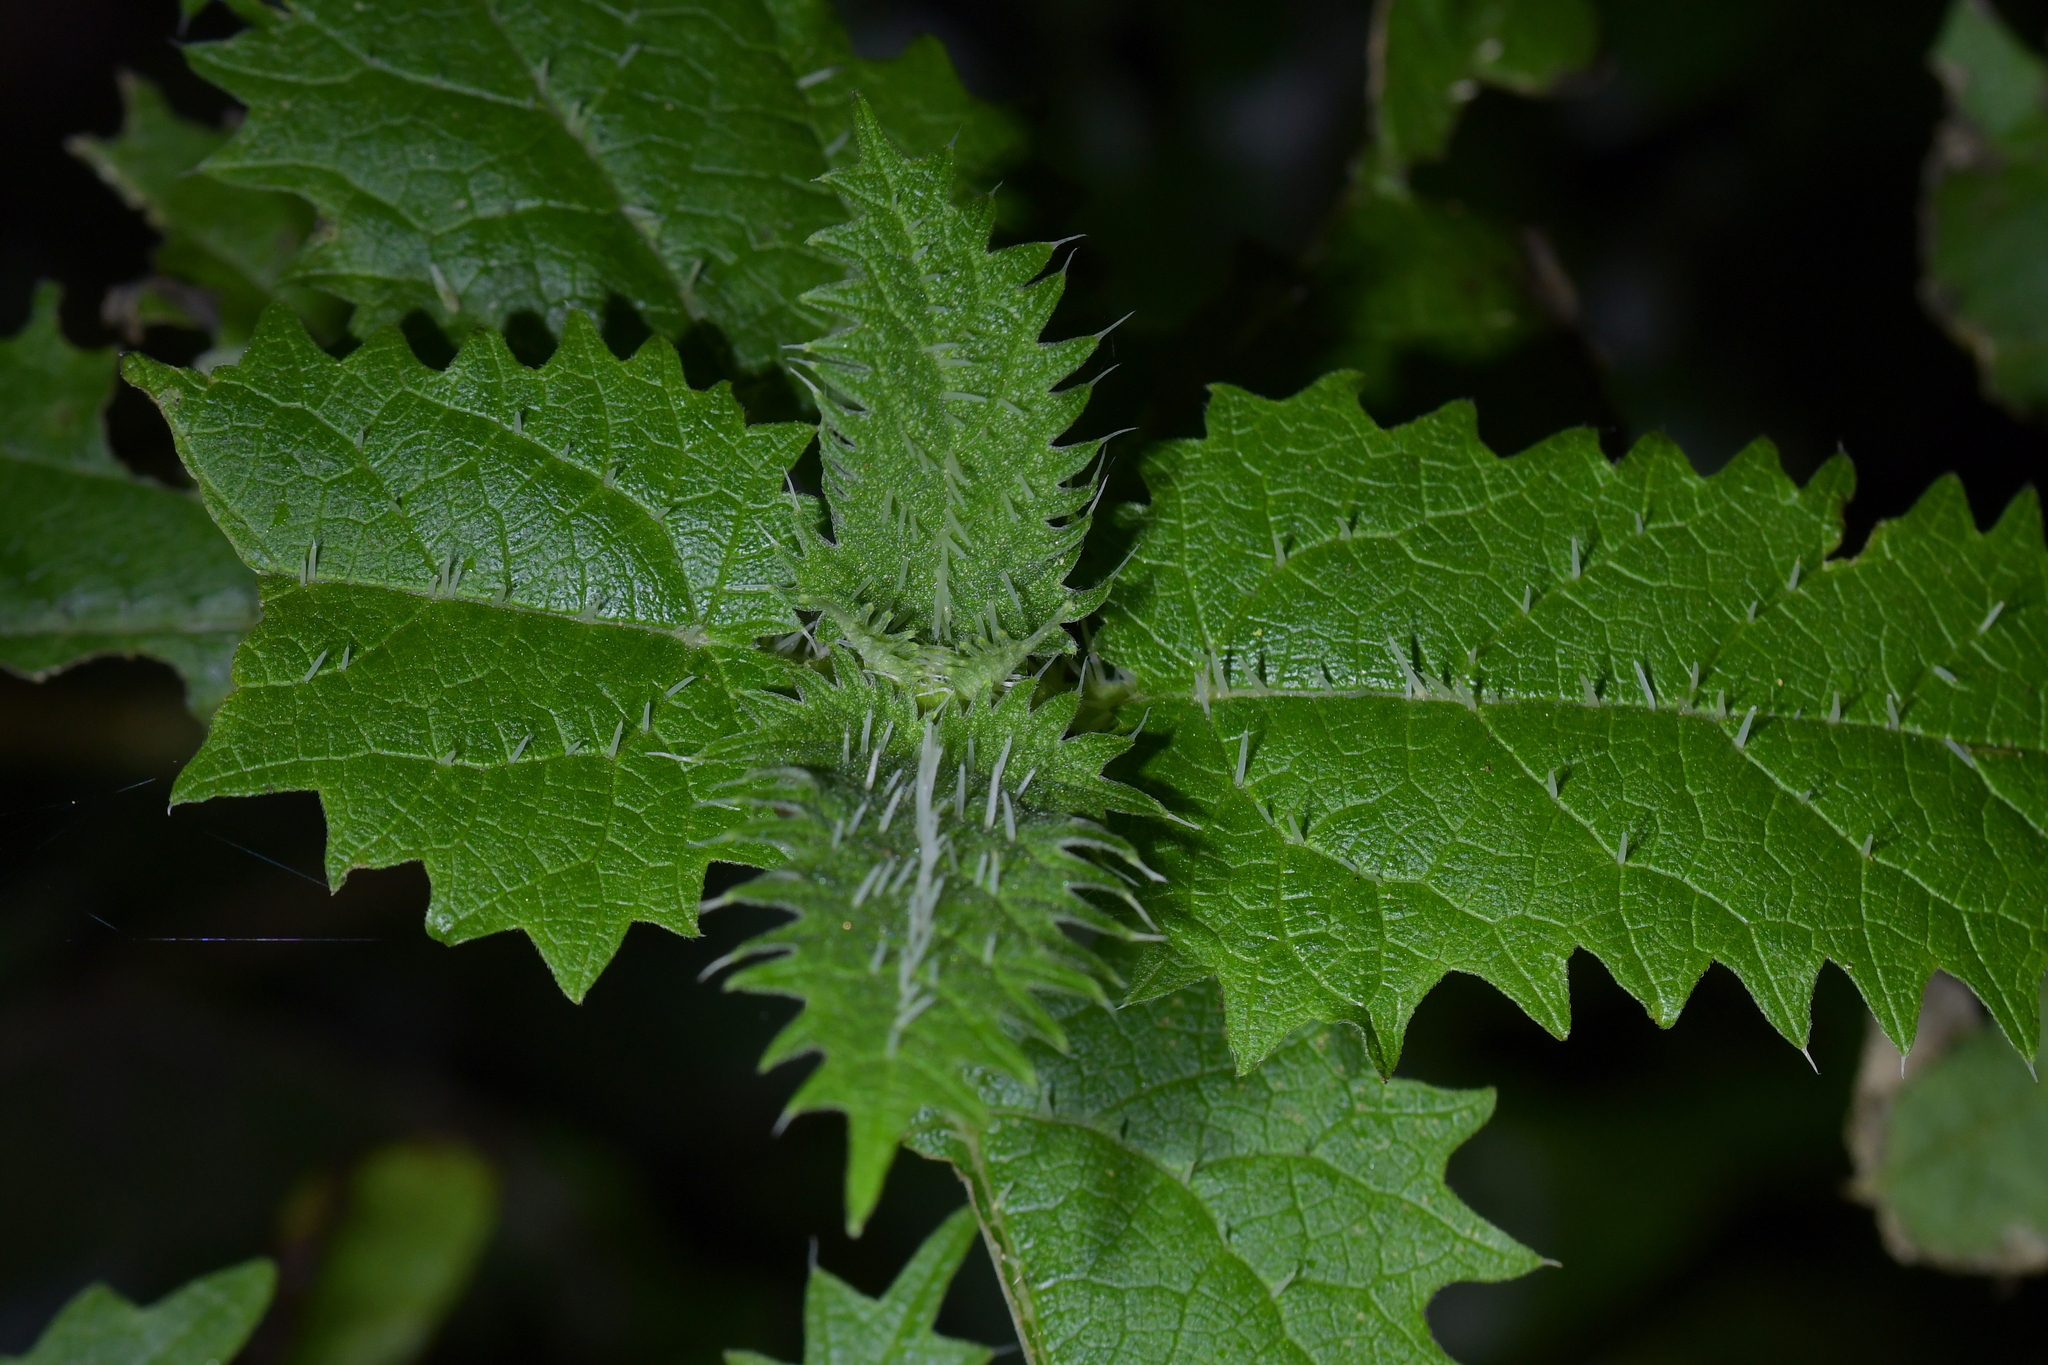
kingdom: Plantae
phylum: Tracheophyta
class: Magnoliopsida
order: Rosales
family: Urticaceae
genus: Urtica
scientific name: Urtica ferox
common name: Tree nettle
